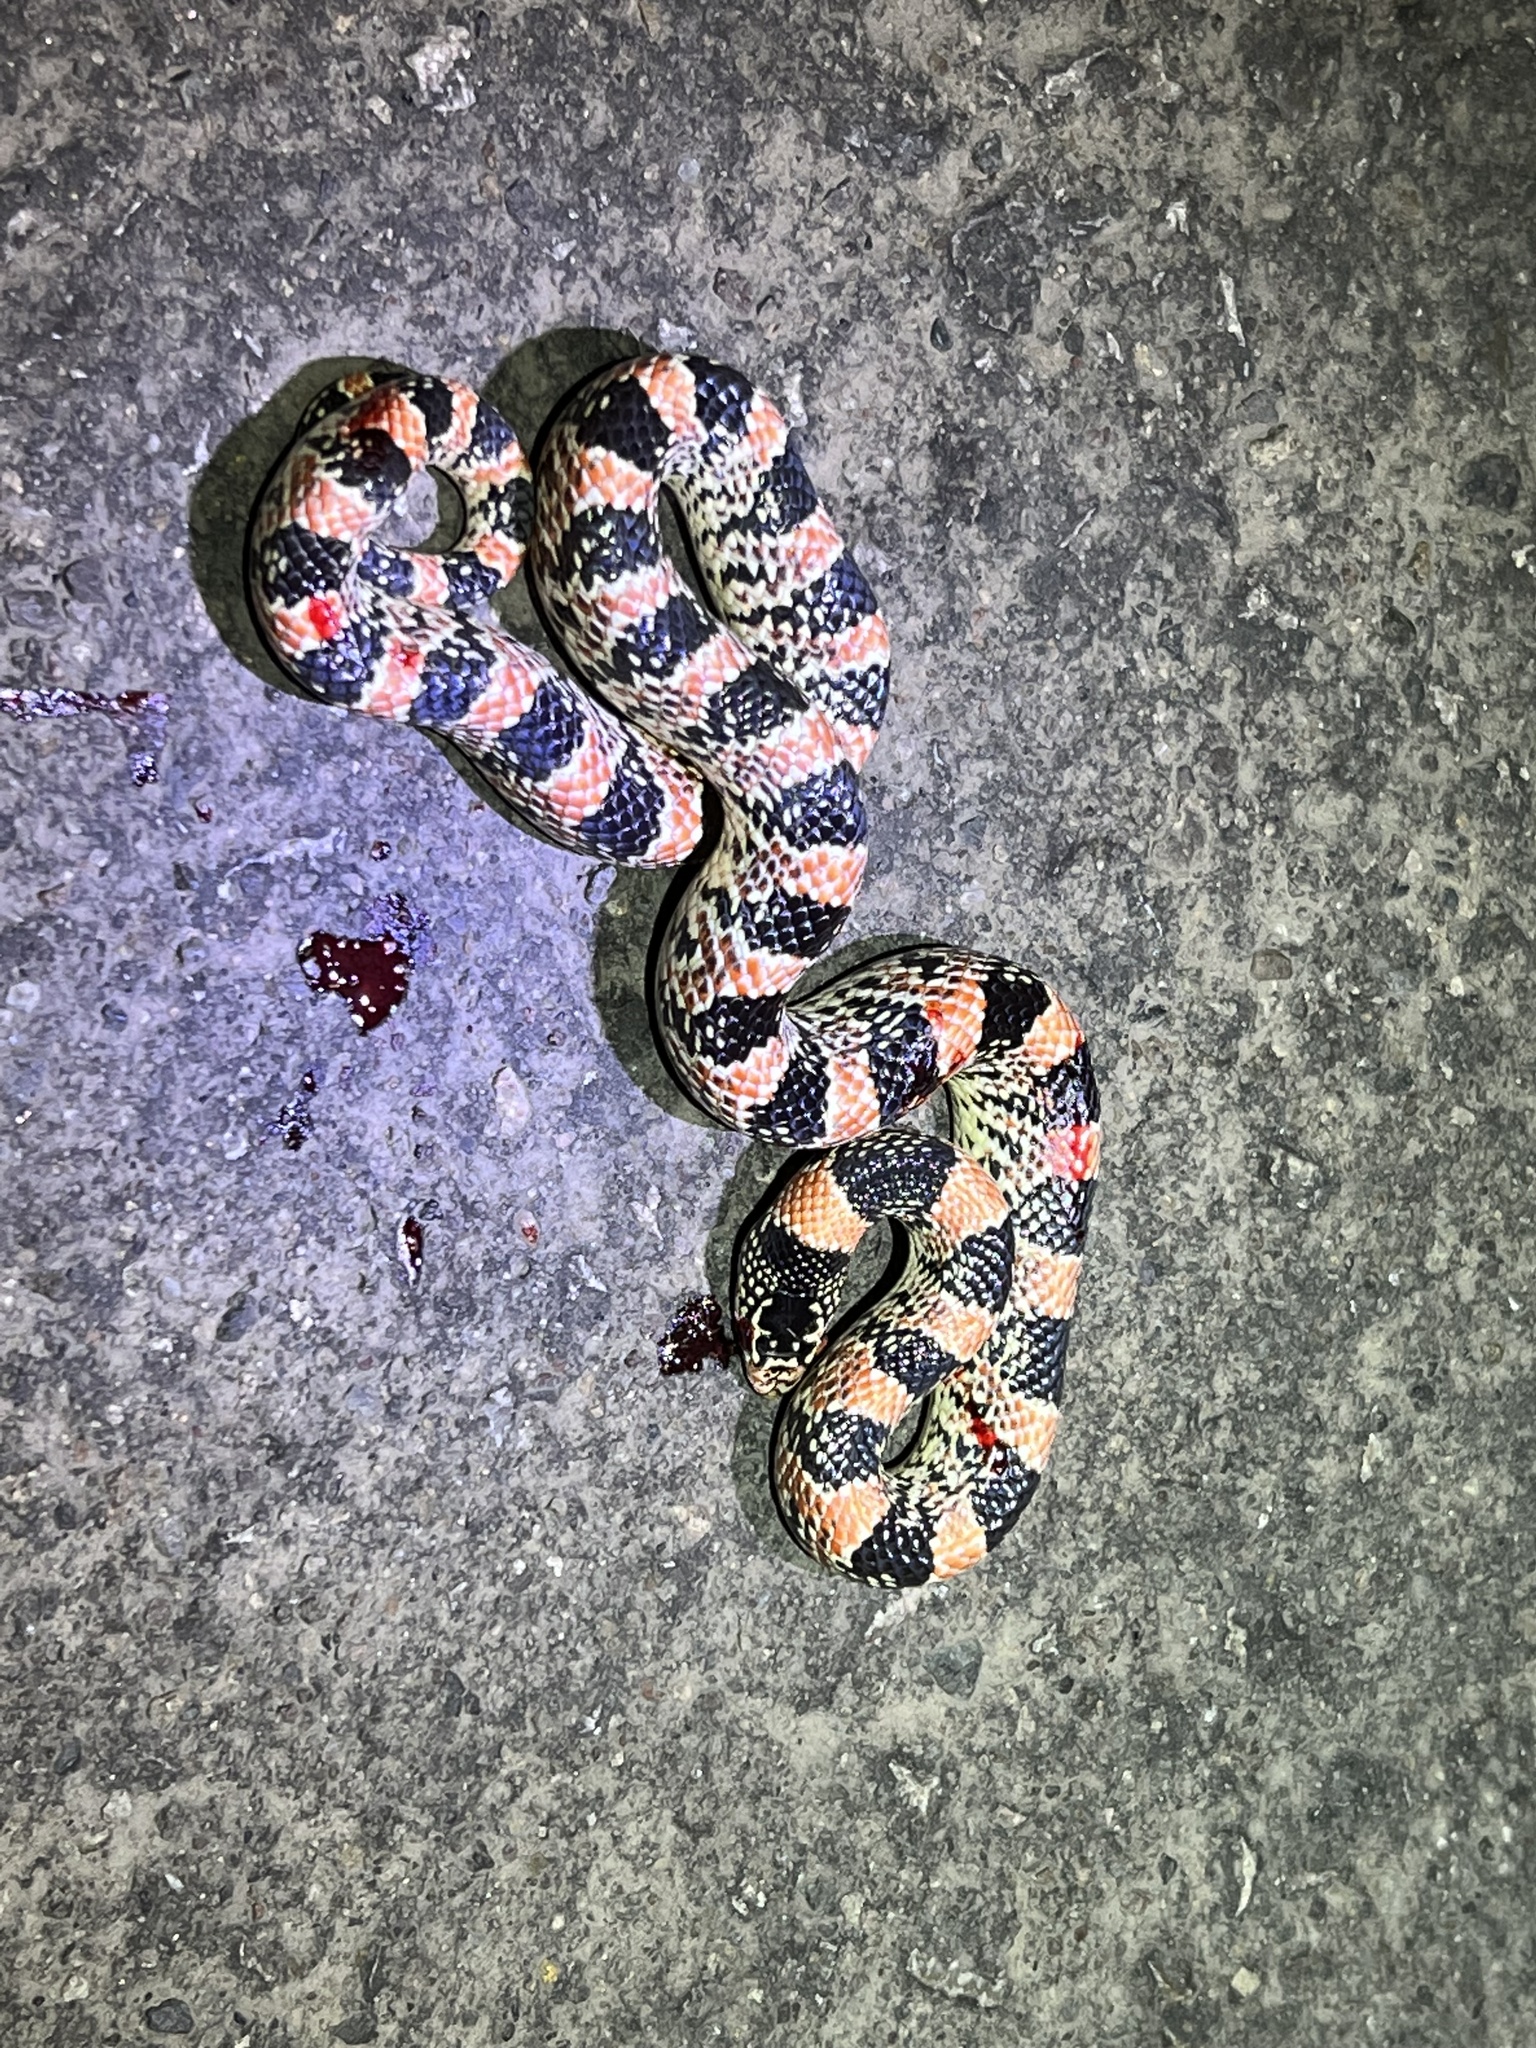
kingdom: Animalia
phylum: Chordata
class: Squamata
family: Colubridae
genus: Rhinocheilus
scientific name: Rhinocheilus lecontei
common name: Longnose snake
